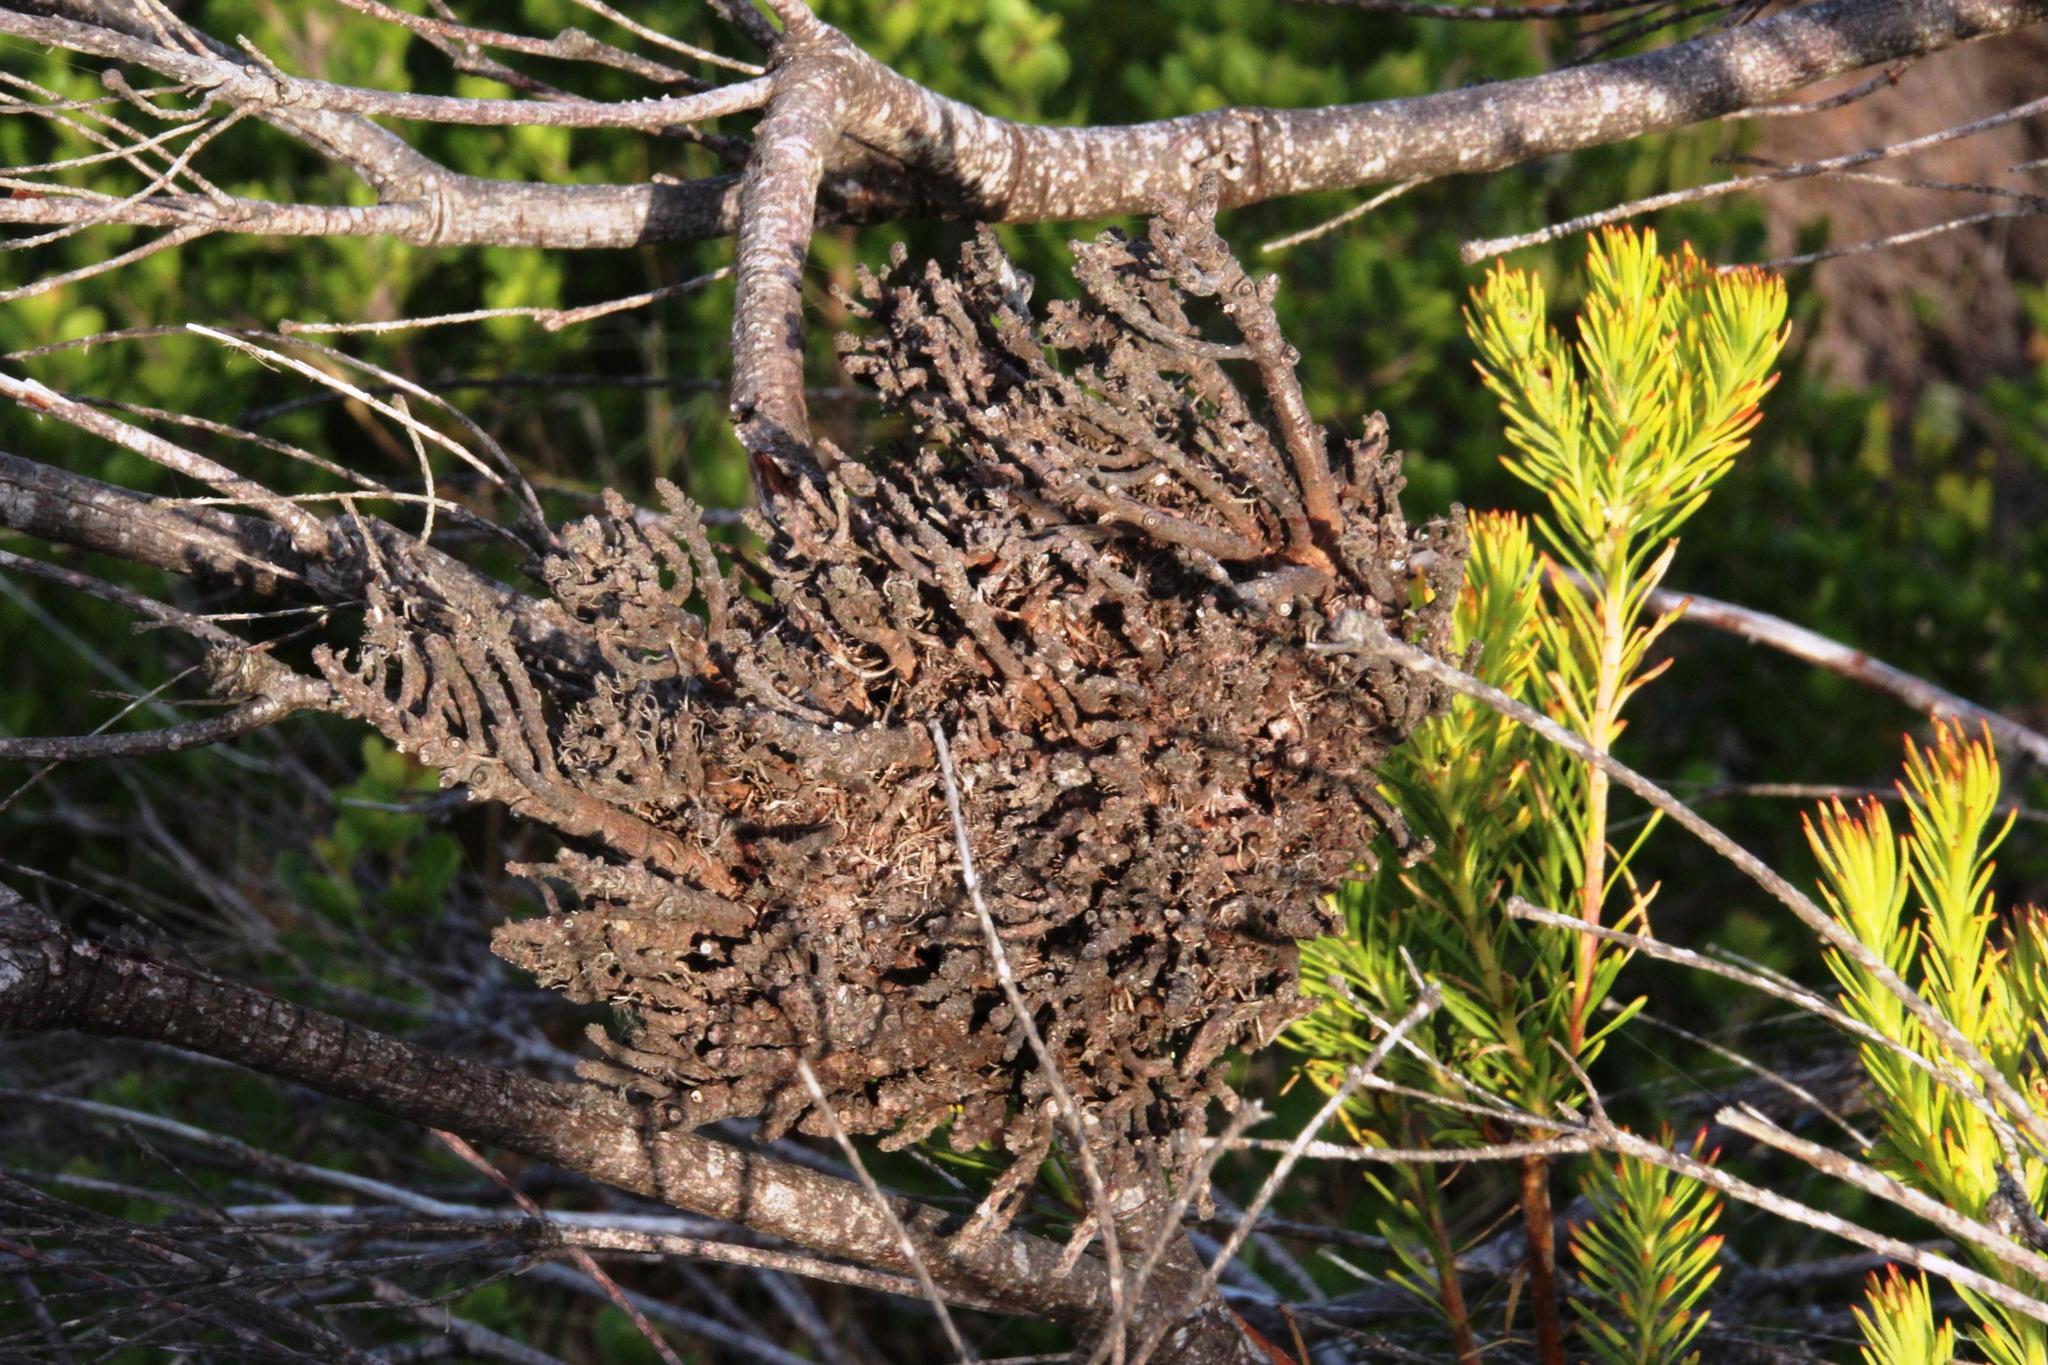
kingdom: Bacteria
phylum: Firmicutes
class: Bacilli
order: Acholeplasmatales
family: Acholeplasmataceae
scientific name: Acholeplasmataceae
